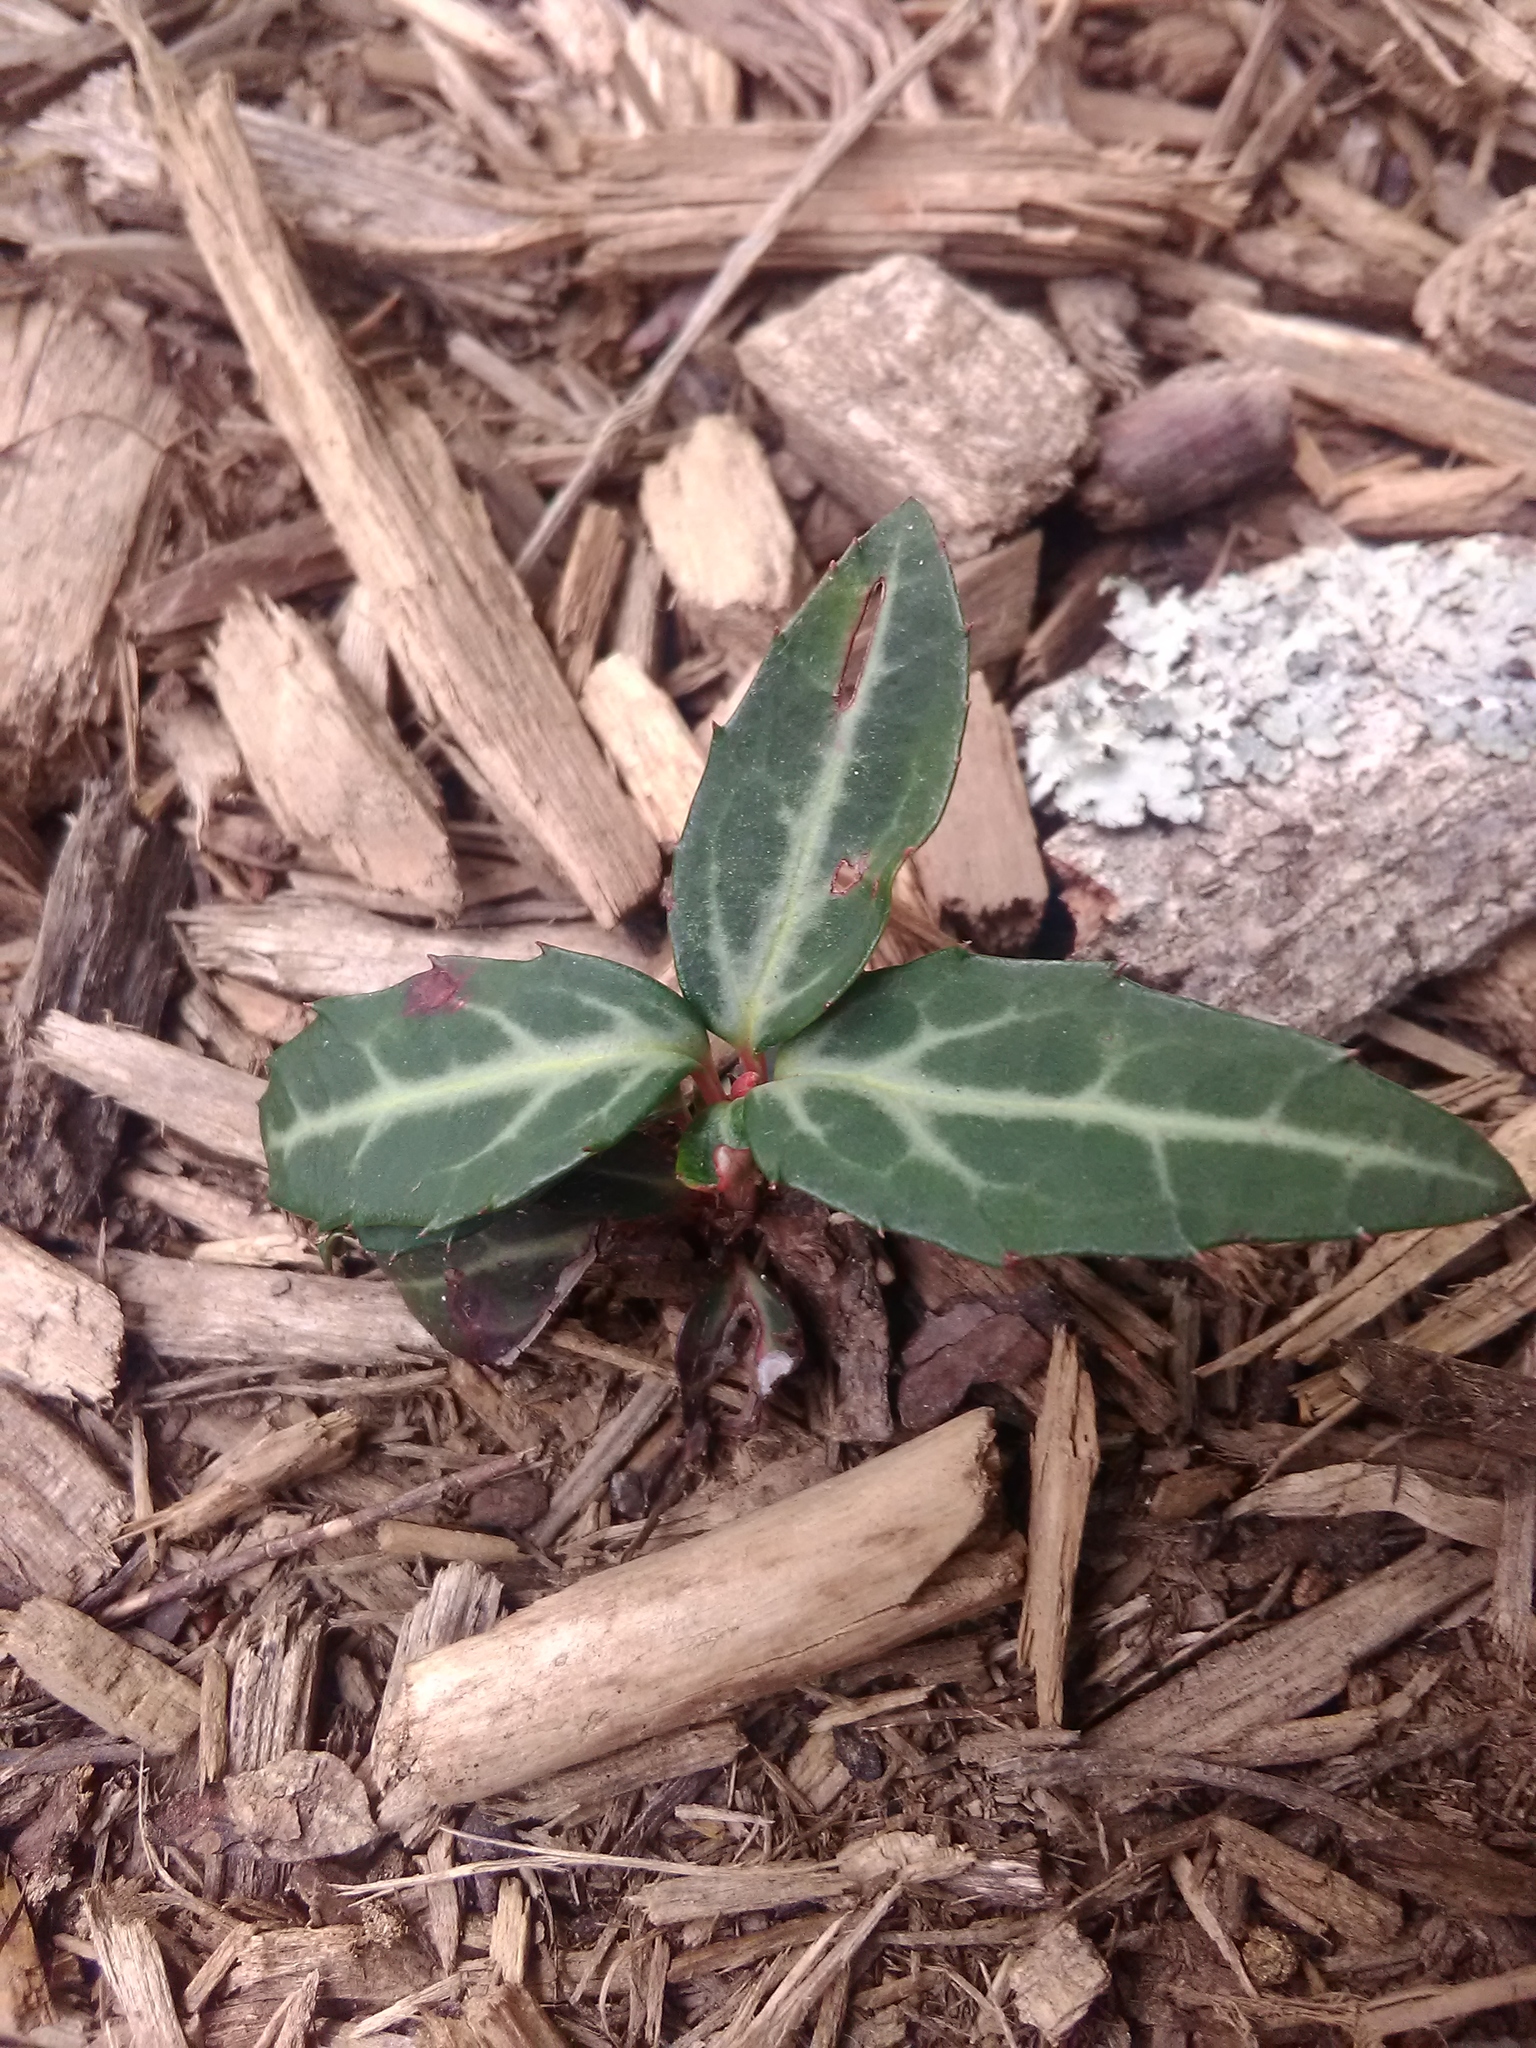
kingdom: Plantae
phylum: Tracheophyta
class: Magnoliopsida
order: Ericales
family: Ericaceae
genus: Chimaphila
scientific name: Chimaphila maculata
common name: Spotted pipsissewa
